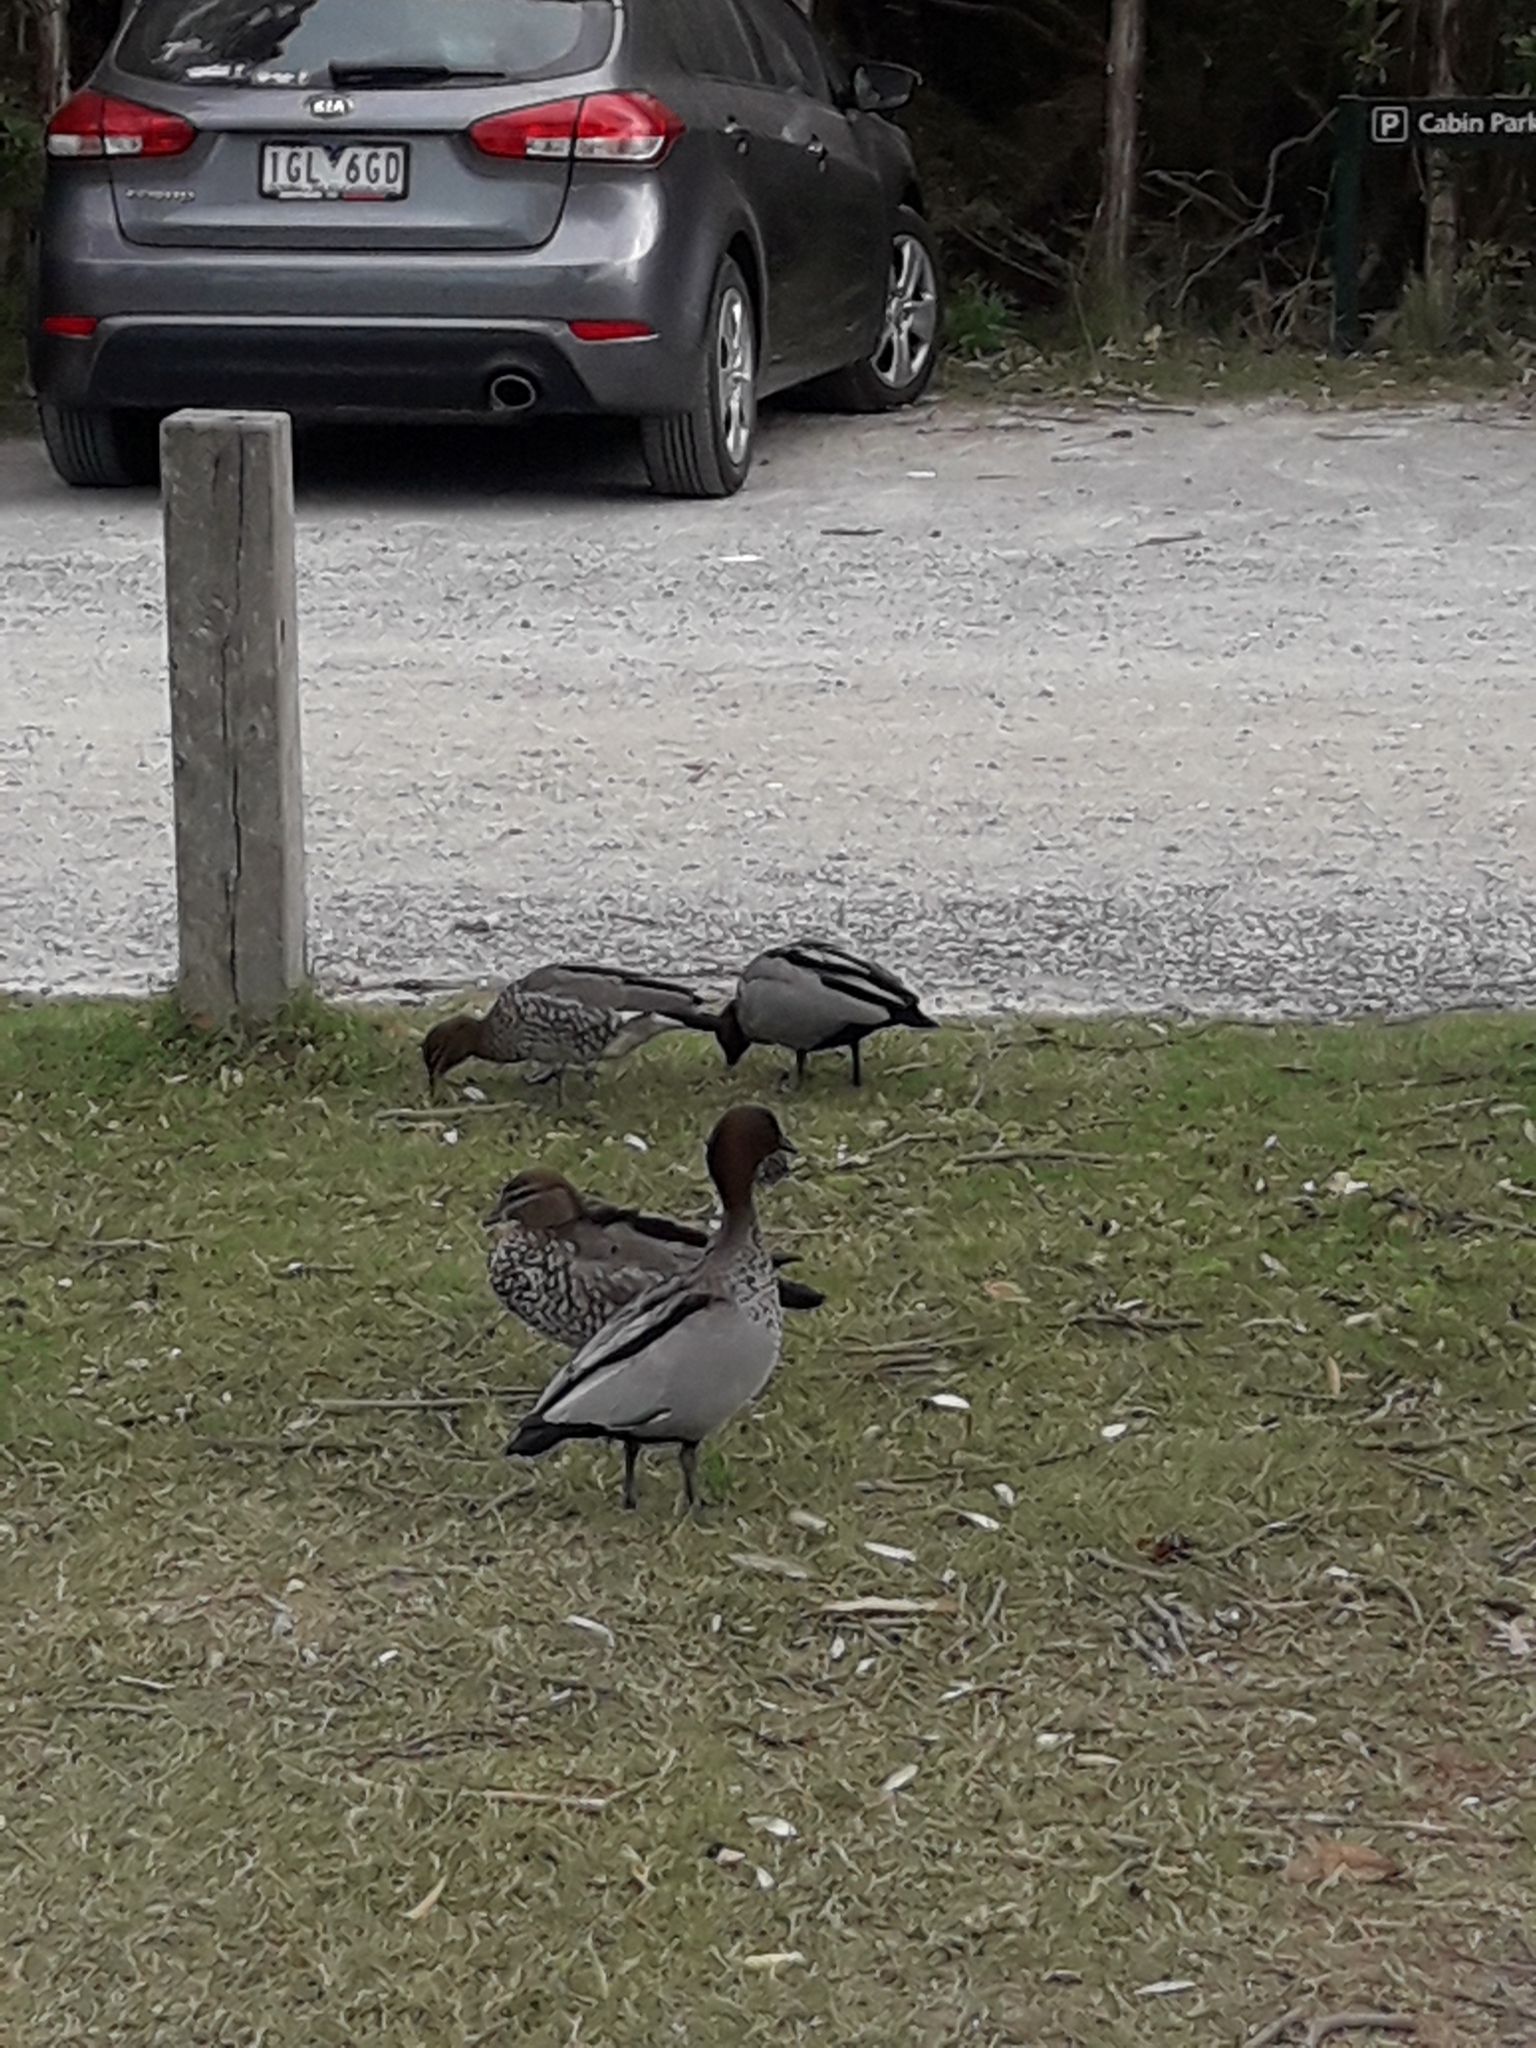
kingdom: Animalia
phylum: Chordata
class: Aves
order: Anseriformes
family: Anatidae
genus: Chenonetta
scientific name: Chenonetta jubata
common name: Maned duck
